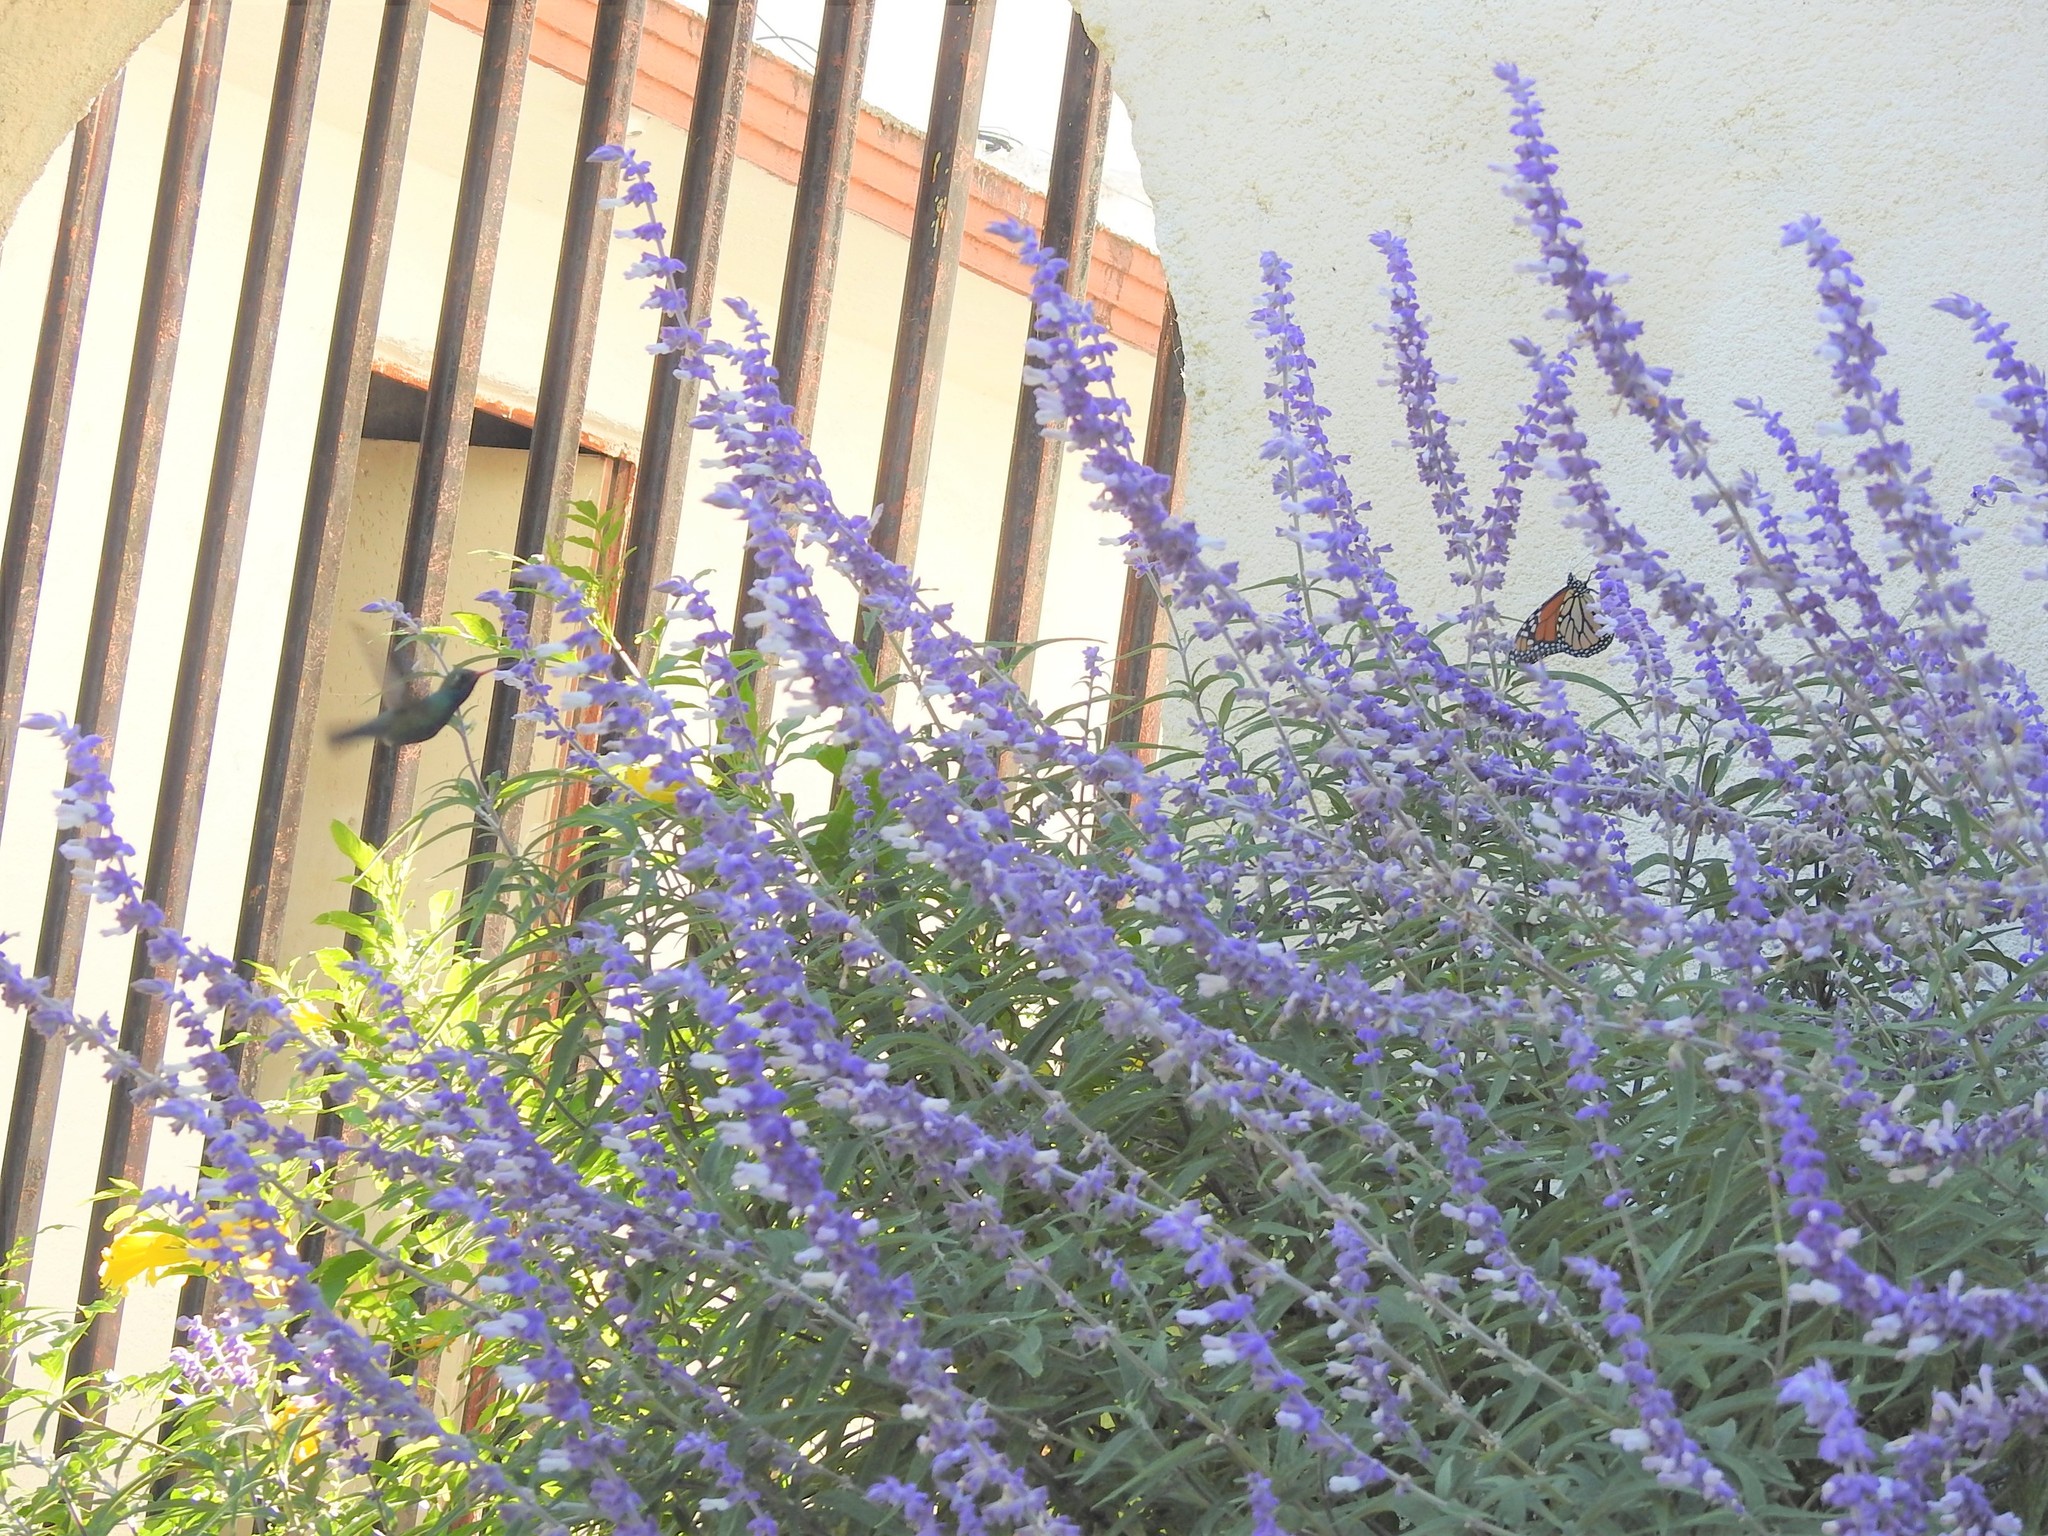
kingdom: Animalia
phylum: Chordata
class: Aves
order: Apodiformes
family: Trochilidae
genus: Cynanthus
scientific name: Cynanthus latirostris
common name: Broad-billed hummingbird
